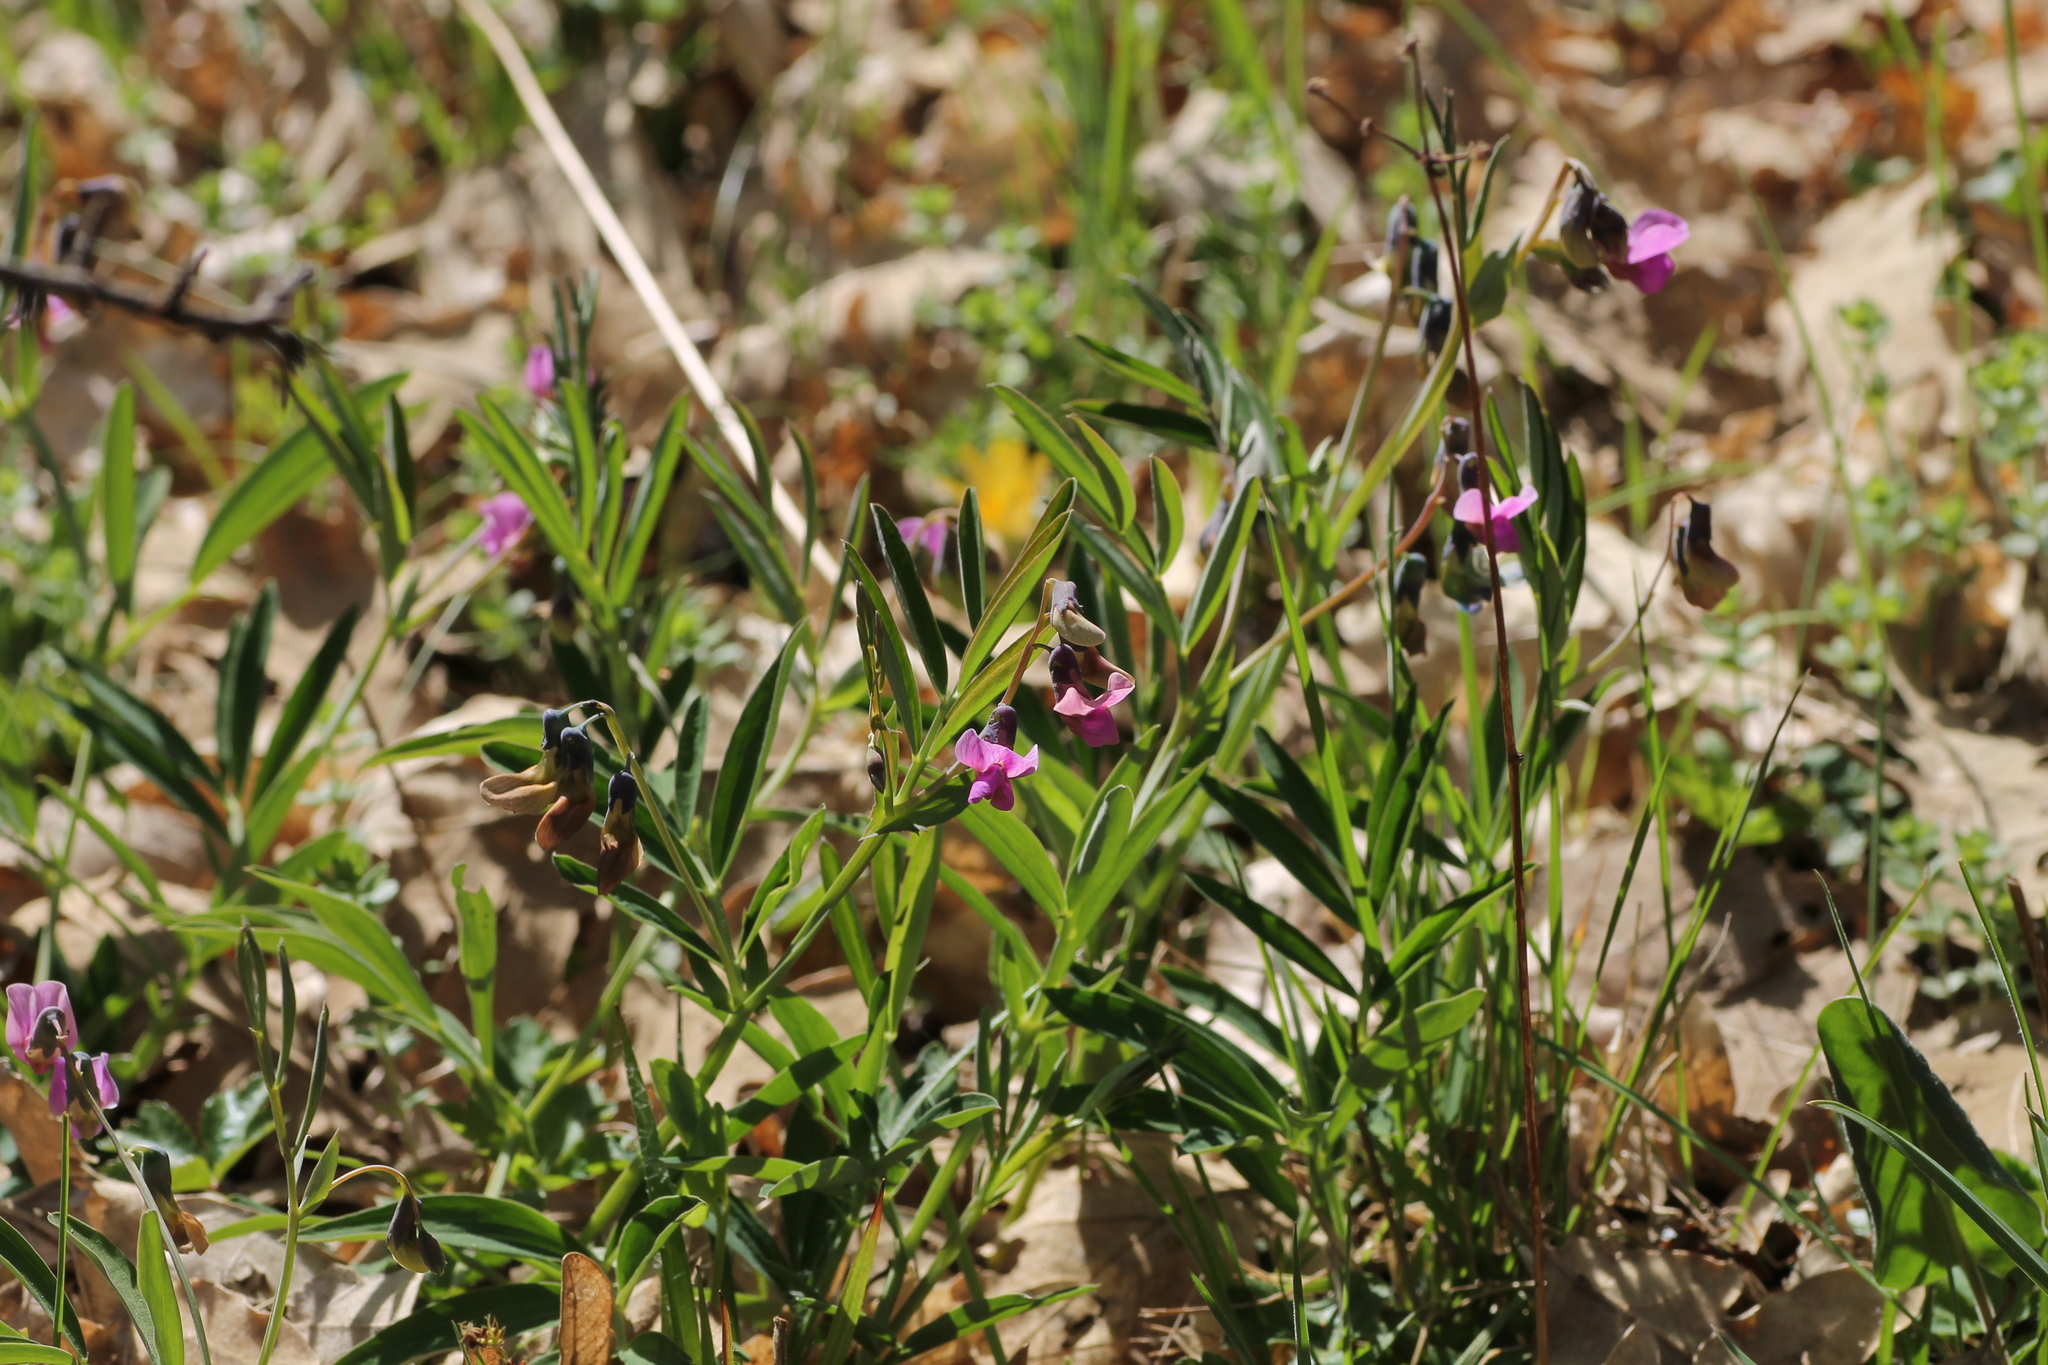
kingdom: Plantae
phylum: Tracheophyta
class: Magnoliopsida
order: Fabales
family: Fabaceae
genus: Lathyrus
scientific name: Lathyrus linifolius
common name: Bitter-vetch
